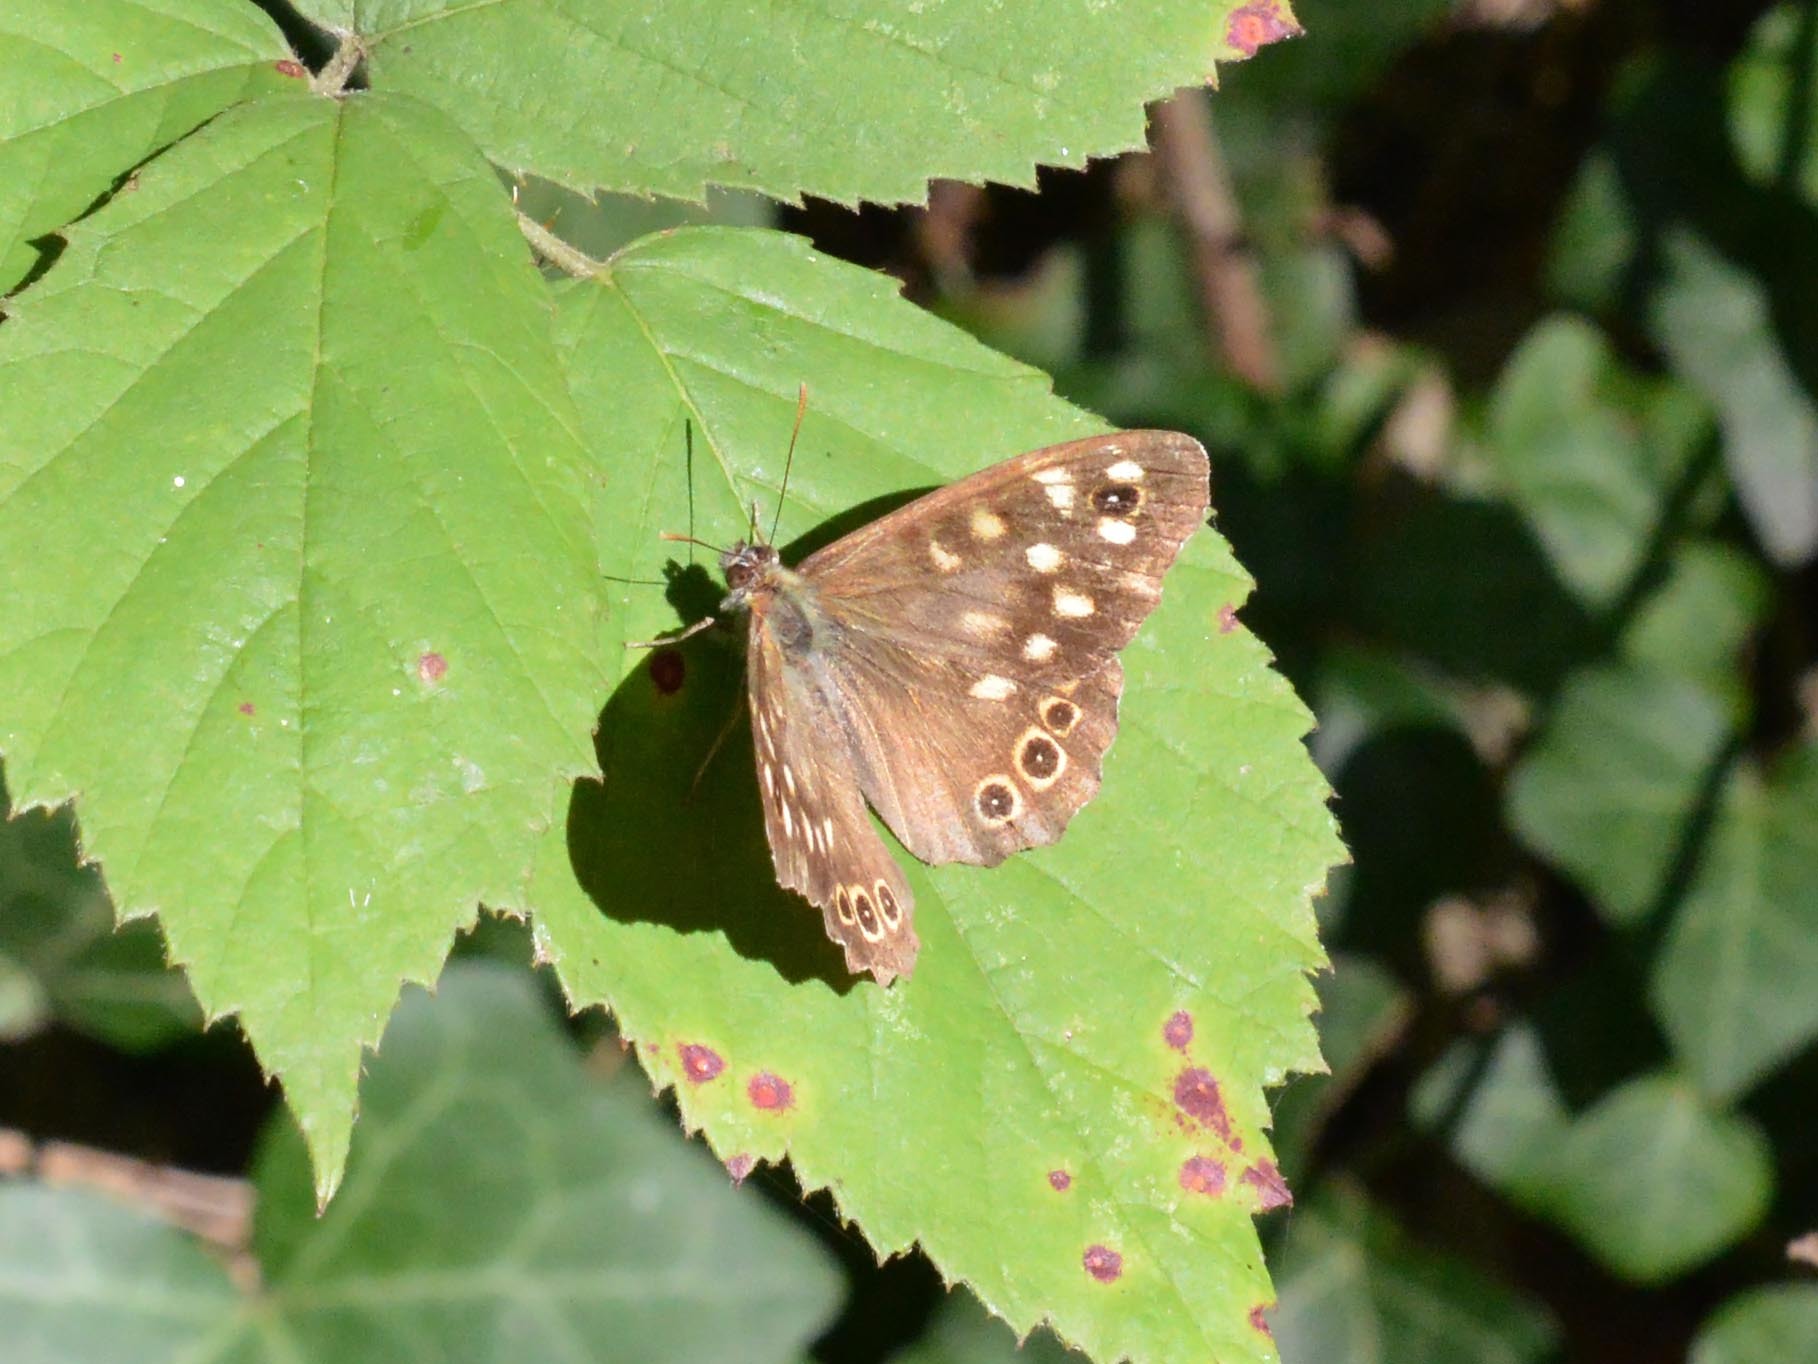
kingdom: Animalia
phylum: Arthropoda
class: Insecta
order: Lepidoptera
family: Nymphalidae
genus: Pararge
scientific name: Pararge aegeria
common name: Speckled wood
